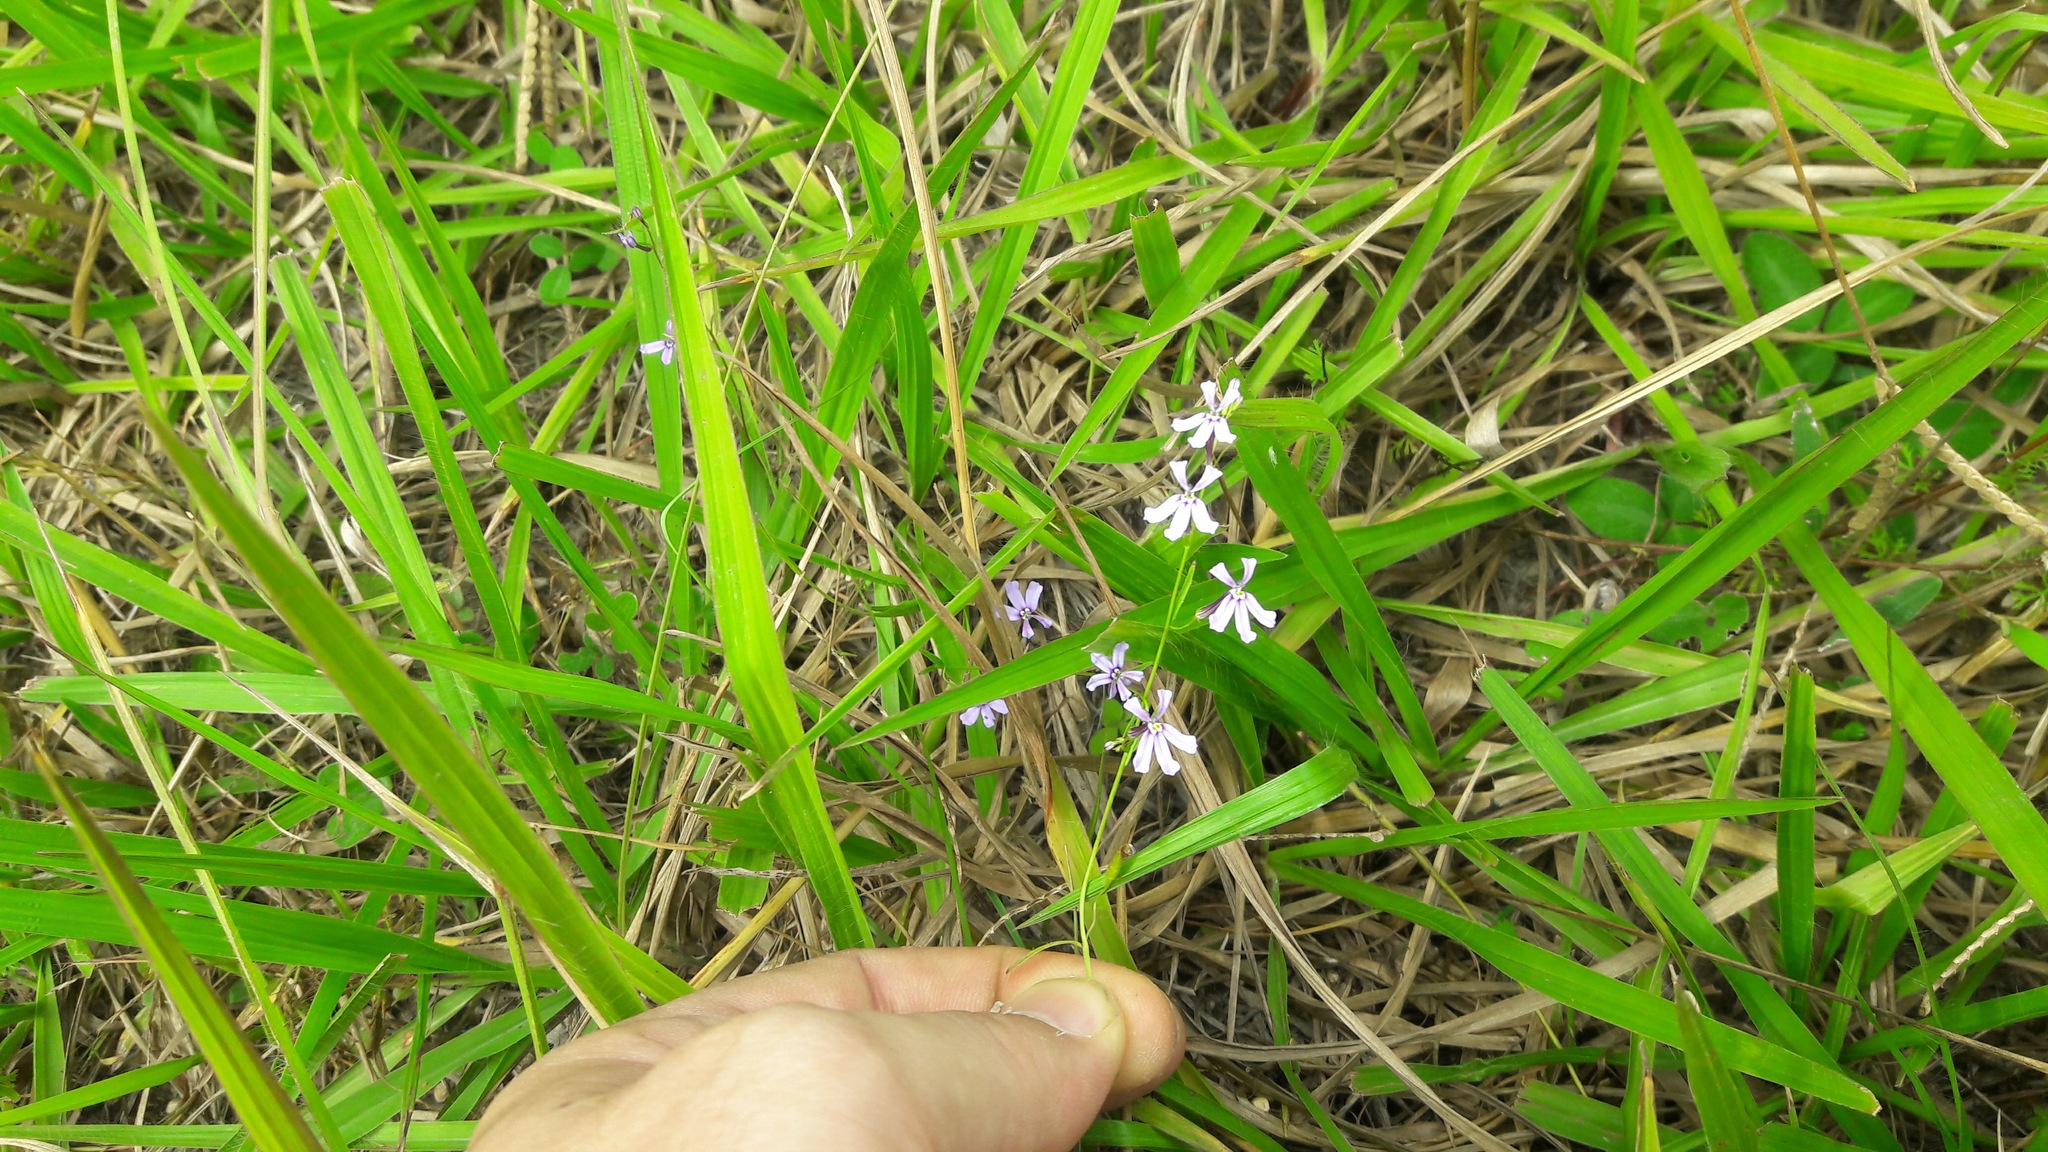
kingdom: Plantae
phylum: Tracheophyta
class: Magnoliopsida
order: Asterales
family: Campanulaceae
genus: Diastatea
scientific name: Diastatea tenera
